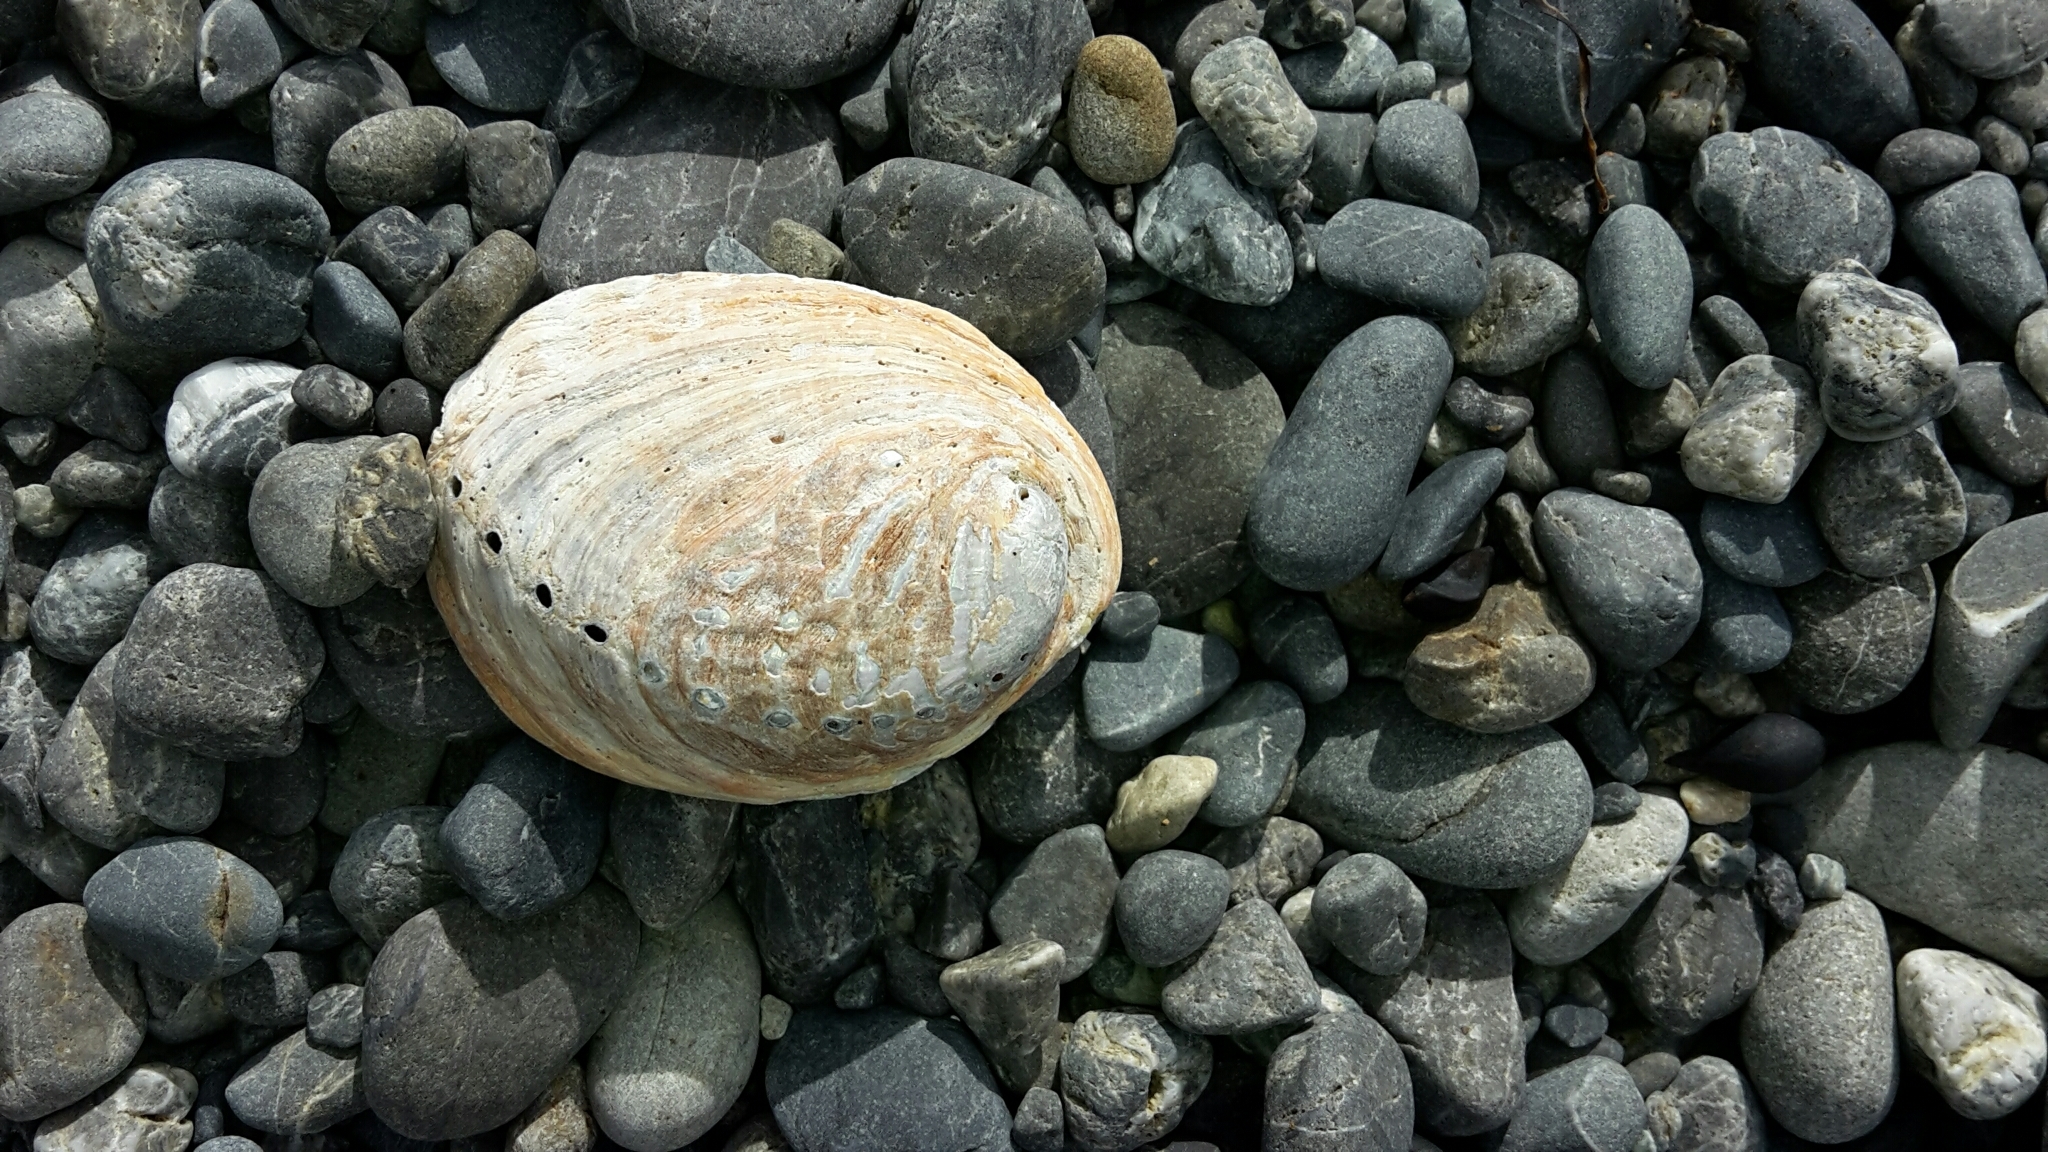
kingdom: Animalia
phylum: Mollusca
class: Gastropoda
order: Lepetellida
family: Haliotidae
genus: Haliotis
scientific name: Haliotis iris
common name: Abalone
